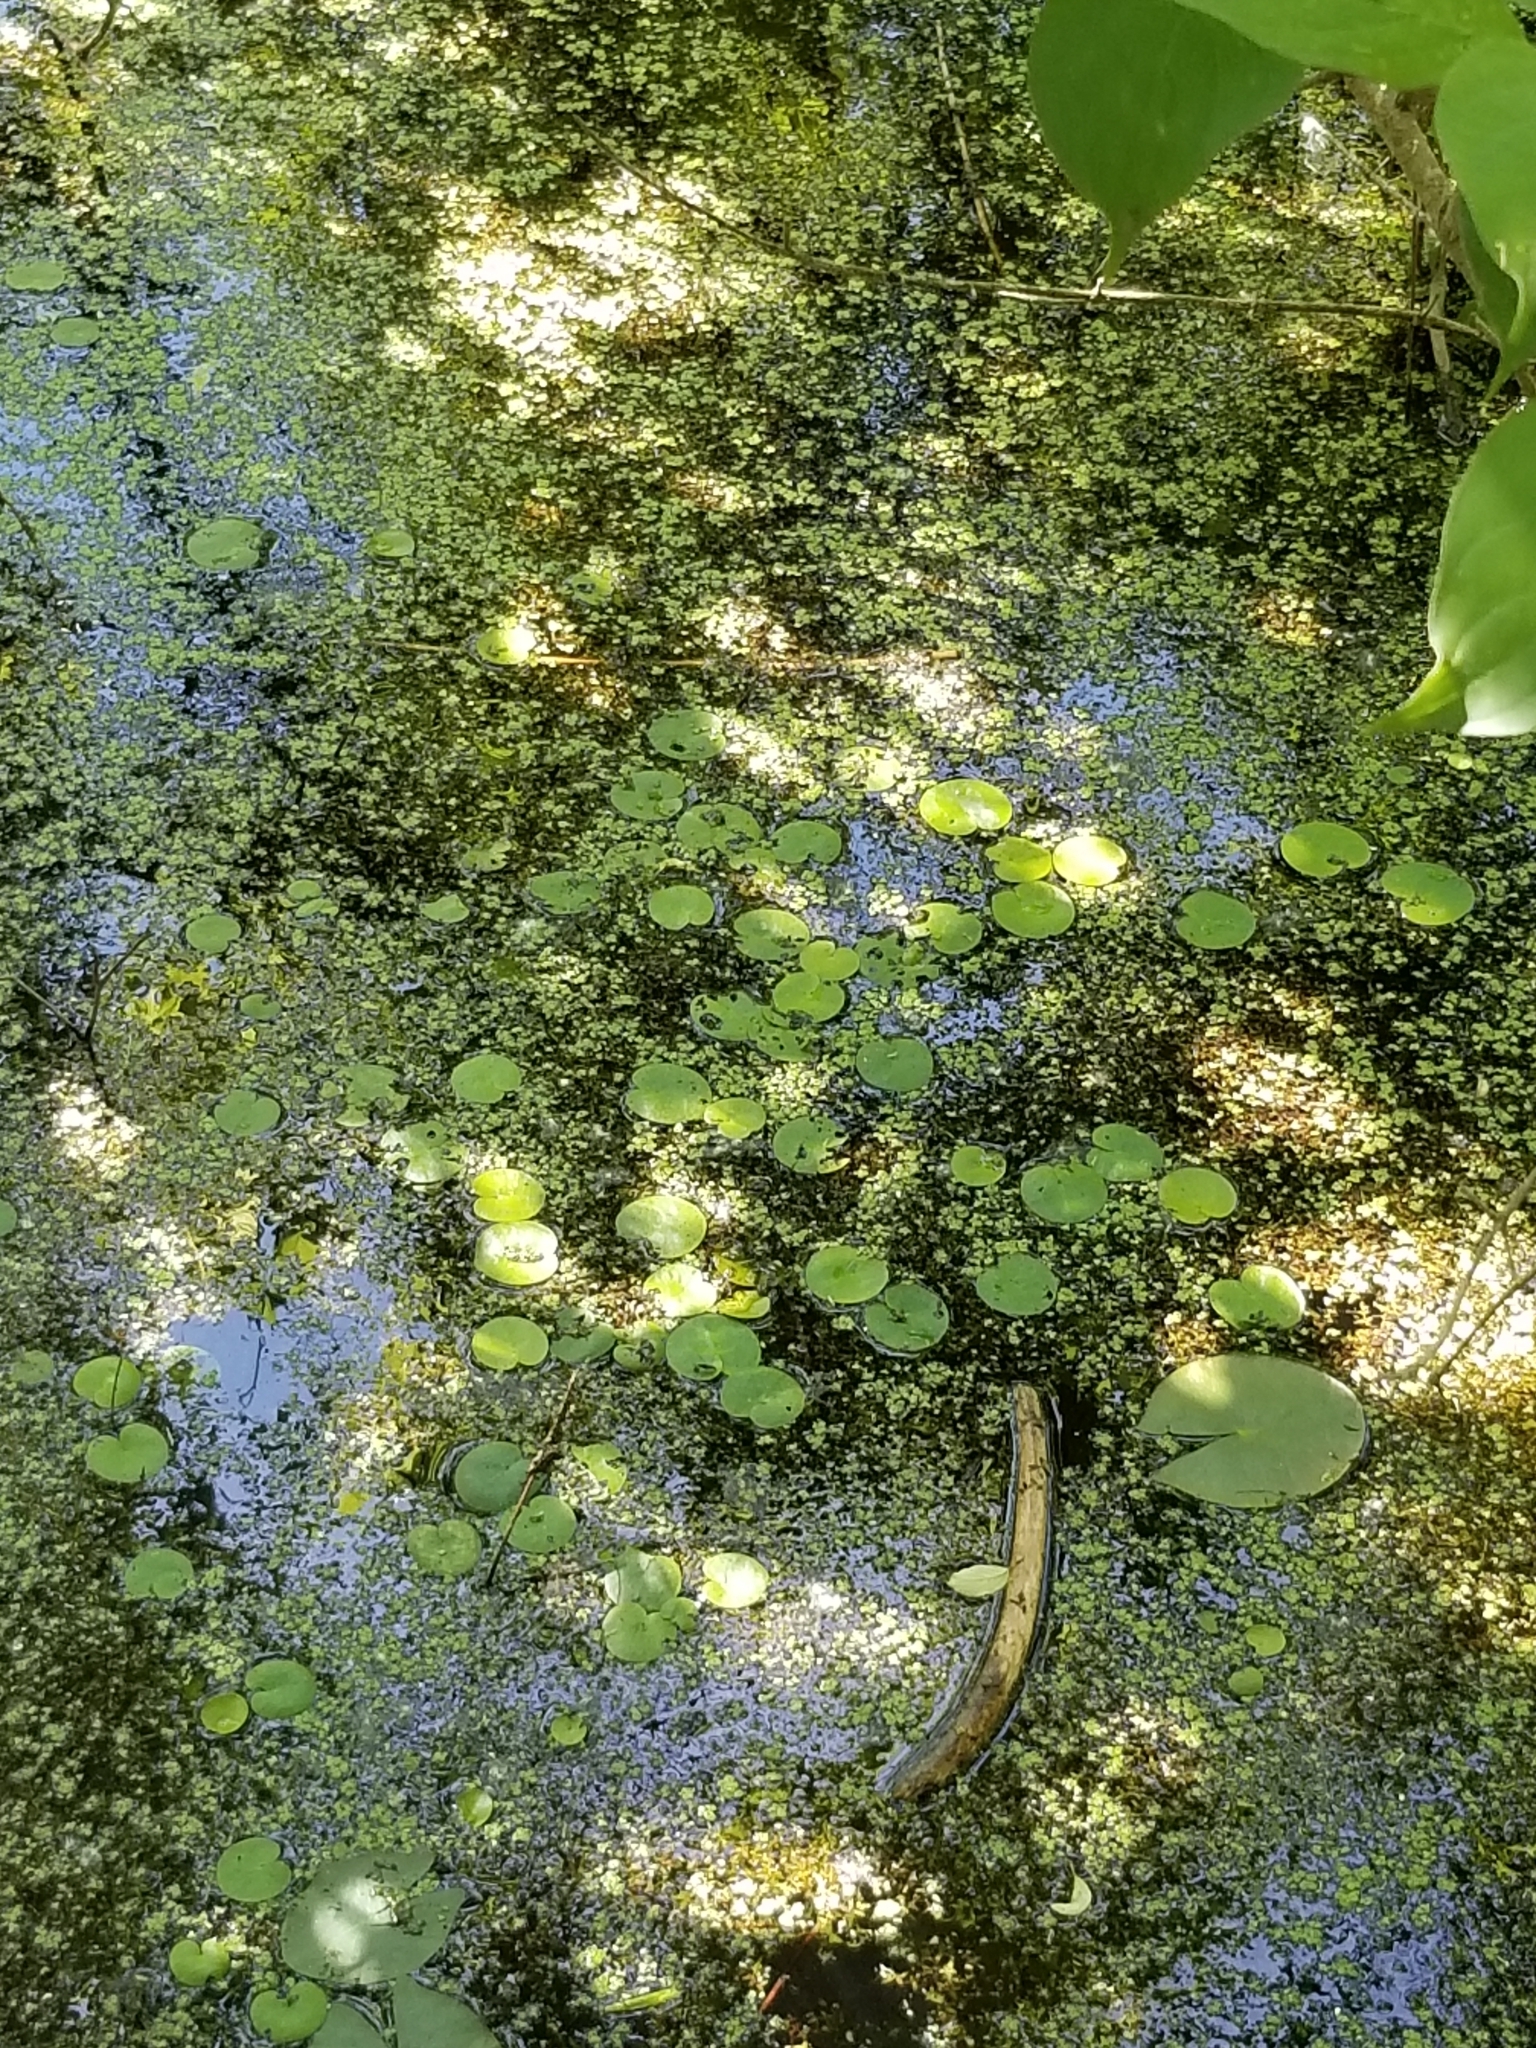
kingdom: Plantae
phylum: Tracheophyta
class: Liliopsida
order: Alismatales
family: Hydrocharitaceae
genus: Hydrocharis
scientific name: Hydrocharis morsus-ranae
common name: Frogbit
